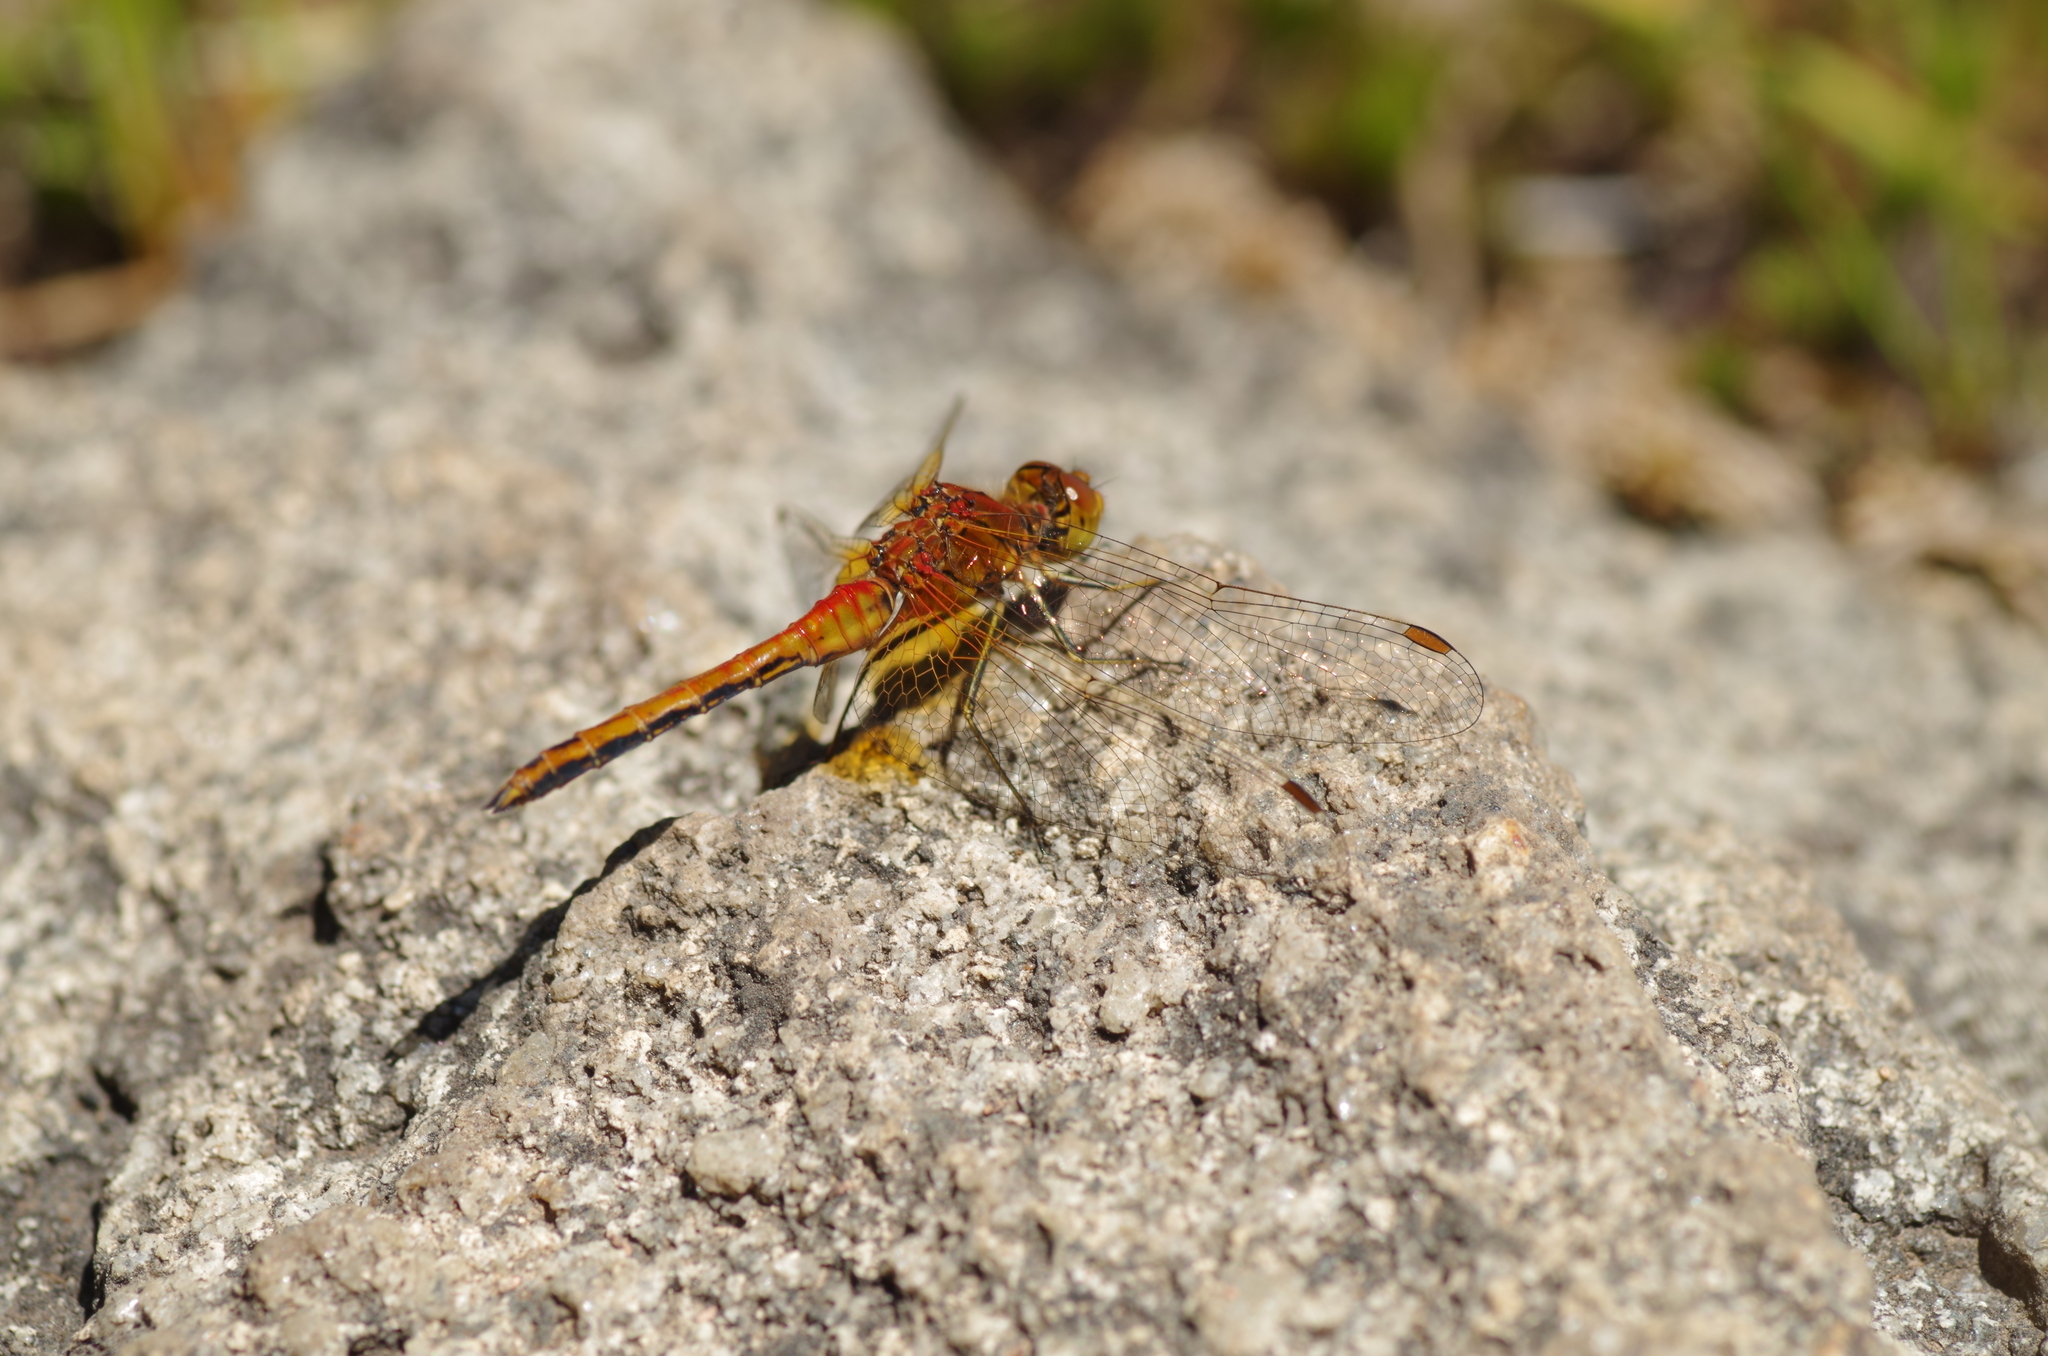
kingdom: Animalia
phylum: Arthropoda
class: Insecta
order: Odonata
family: Libellulidae
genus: Sympetrum
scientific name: Sympetrum flaveolum
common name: Yellow-winged darter
